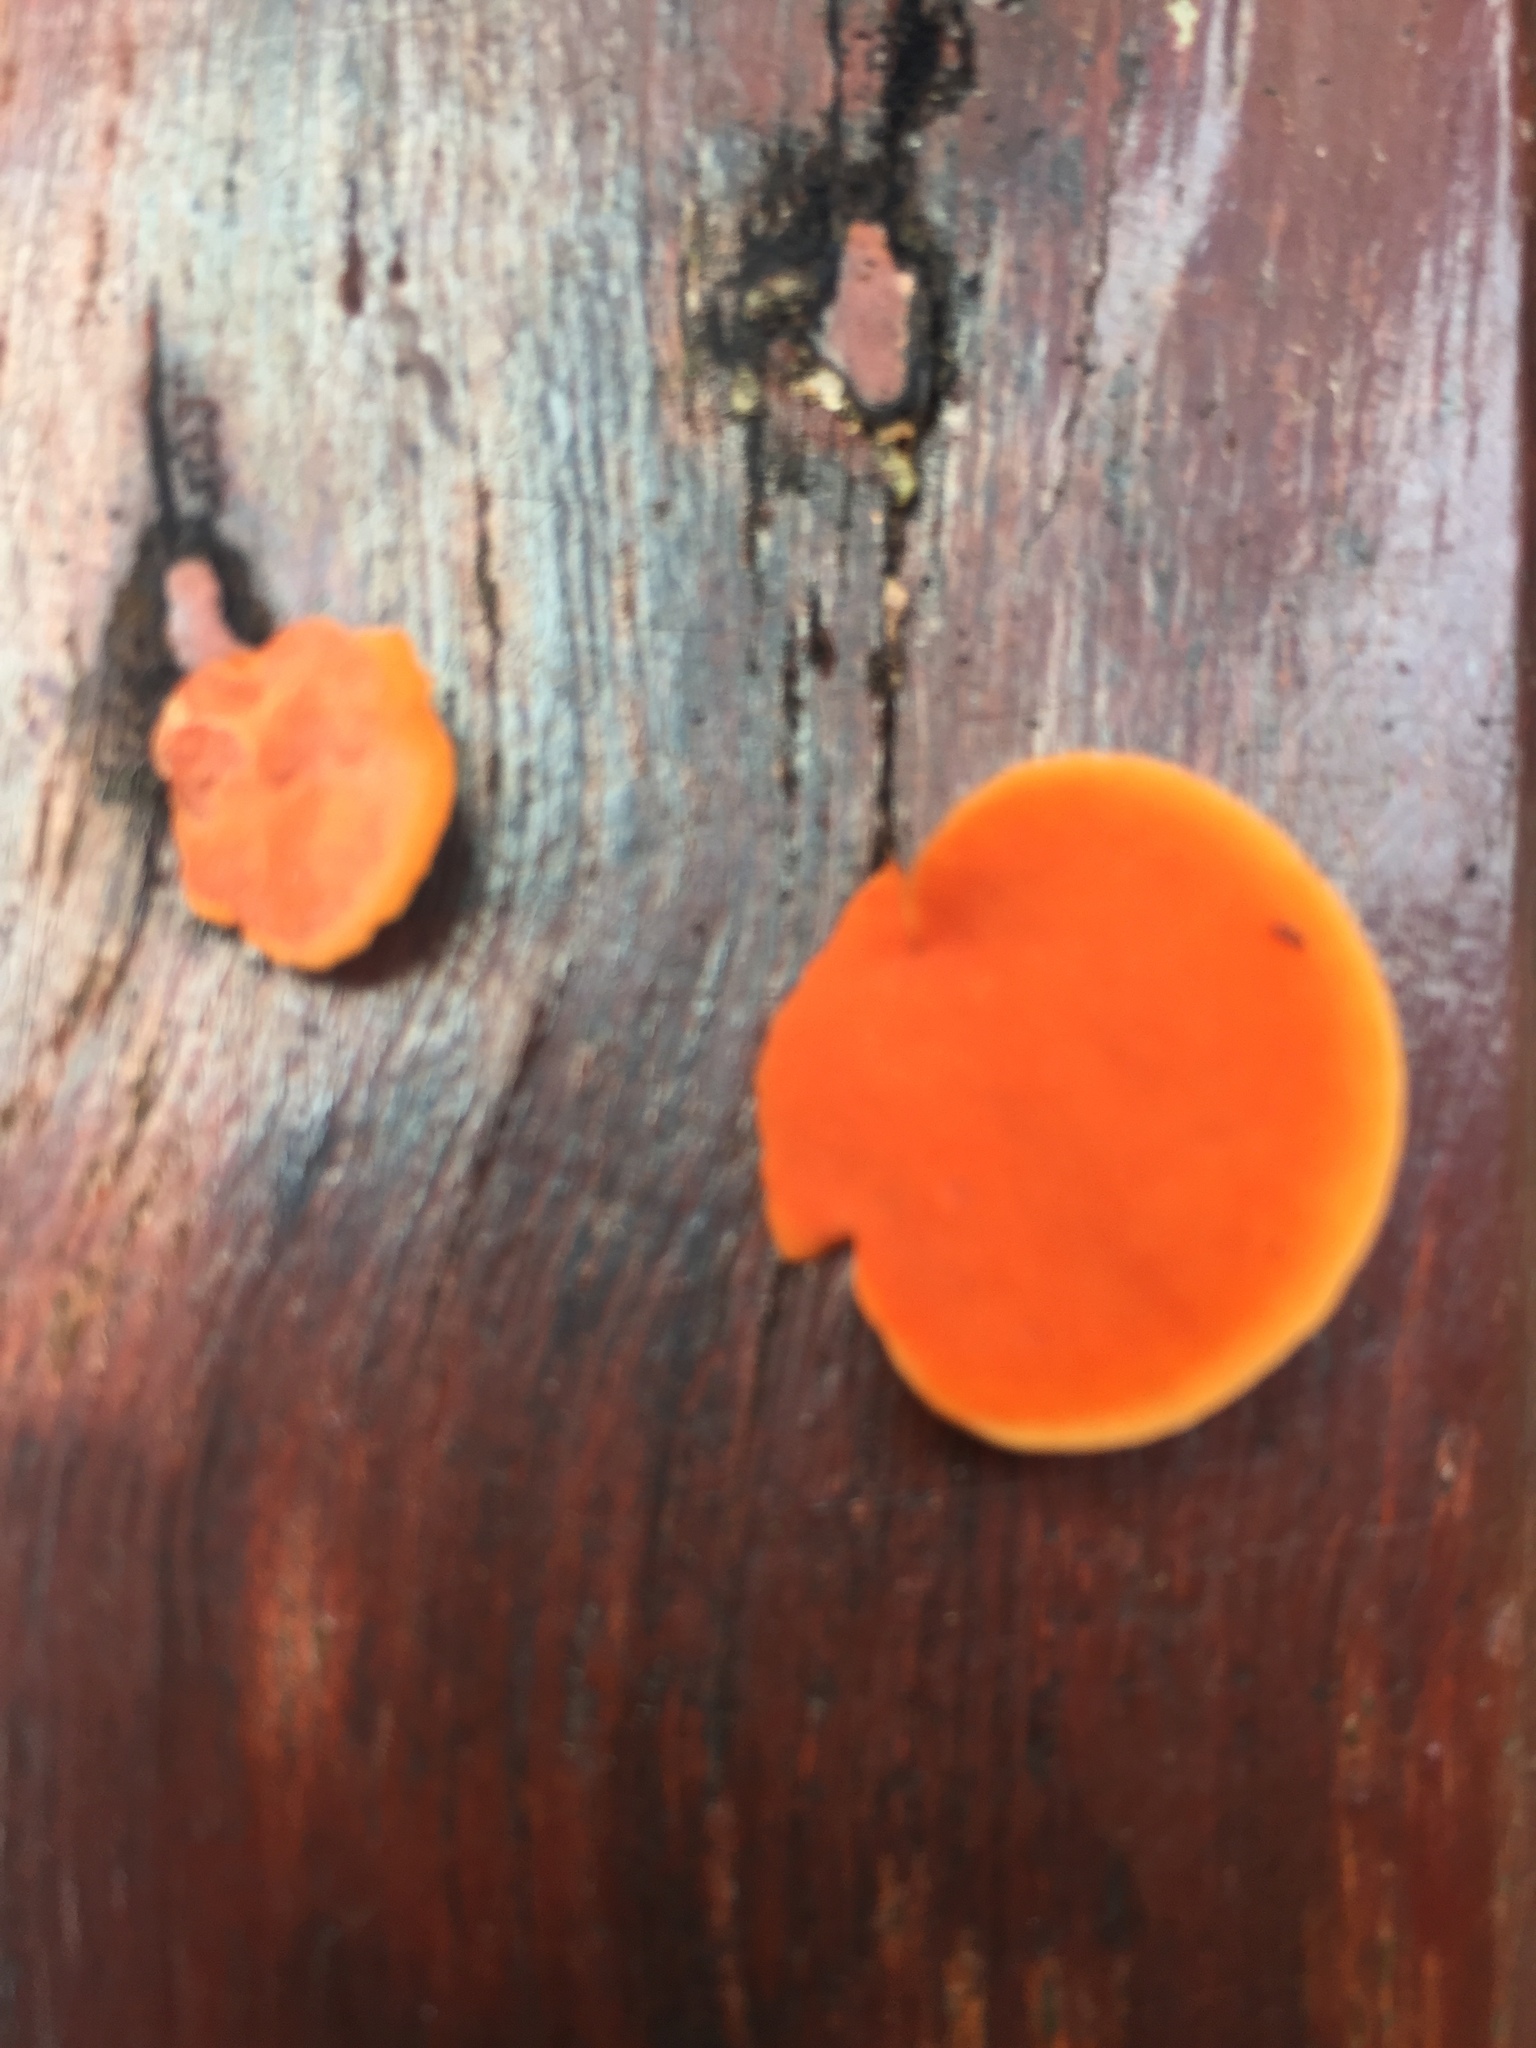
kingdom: Fungi
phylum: Basidiomycota
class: Agaricomycetes
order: Polyporales
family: Polyporaceae
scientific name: Polyporaceae
